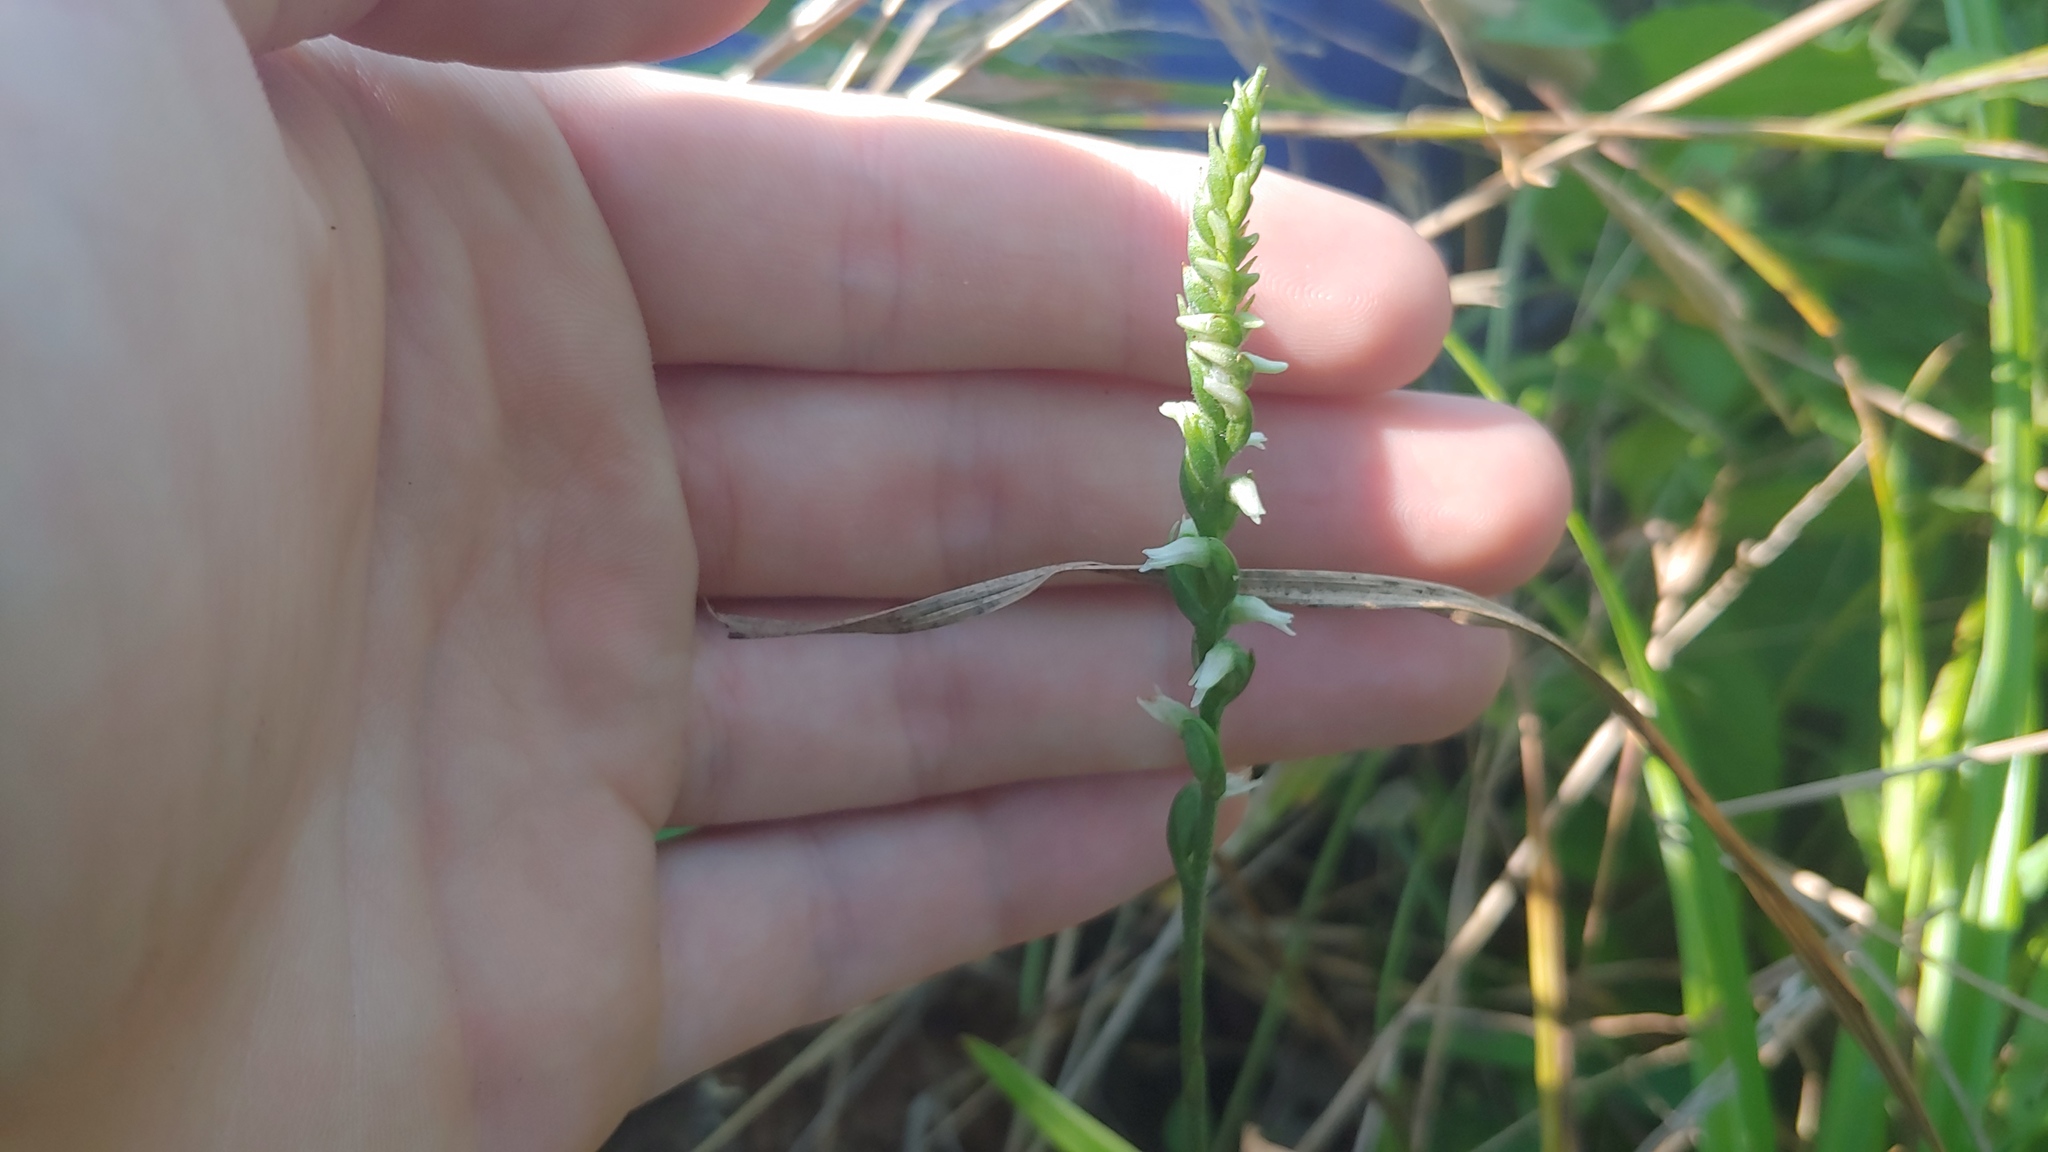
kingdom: Plantae
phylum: Tracheophyta
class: Liliopsida
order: Asparagales
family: Orchidaceae
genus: Spiranthes
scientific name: Spiranthes ovalis
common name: October ladies'-tresses
